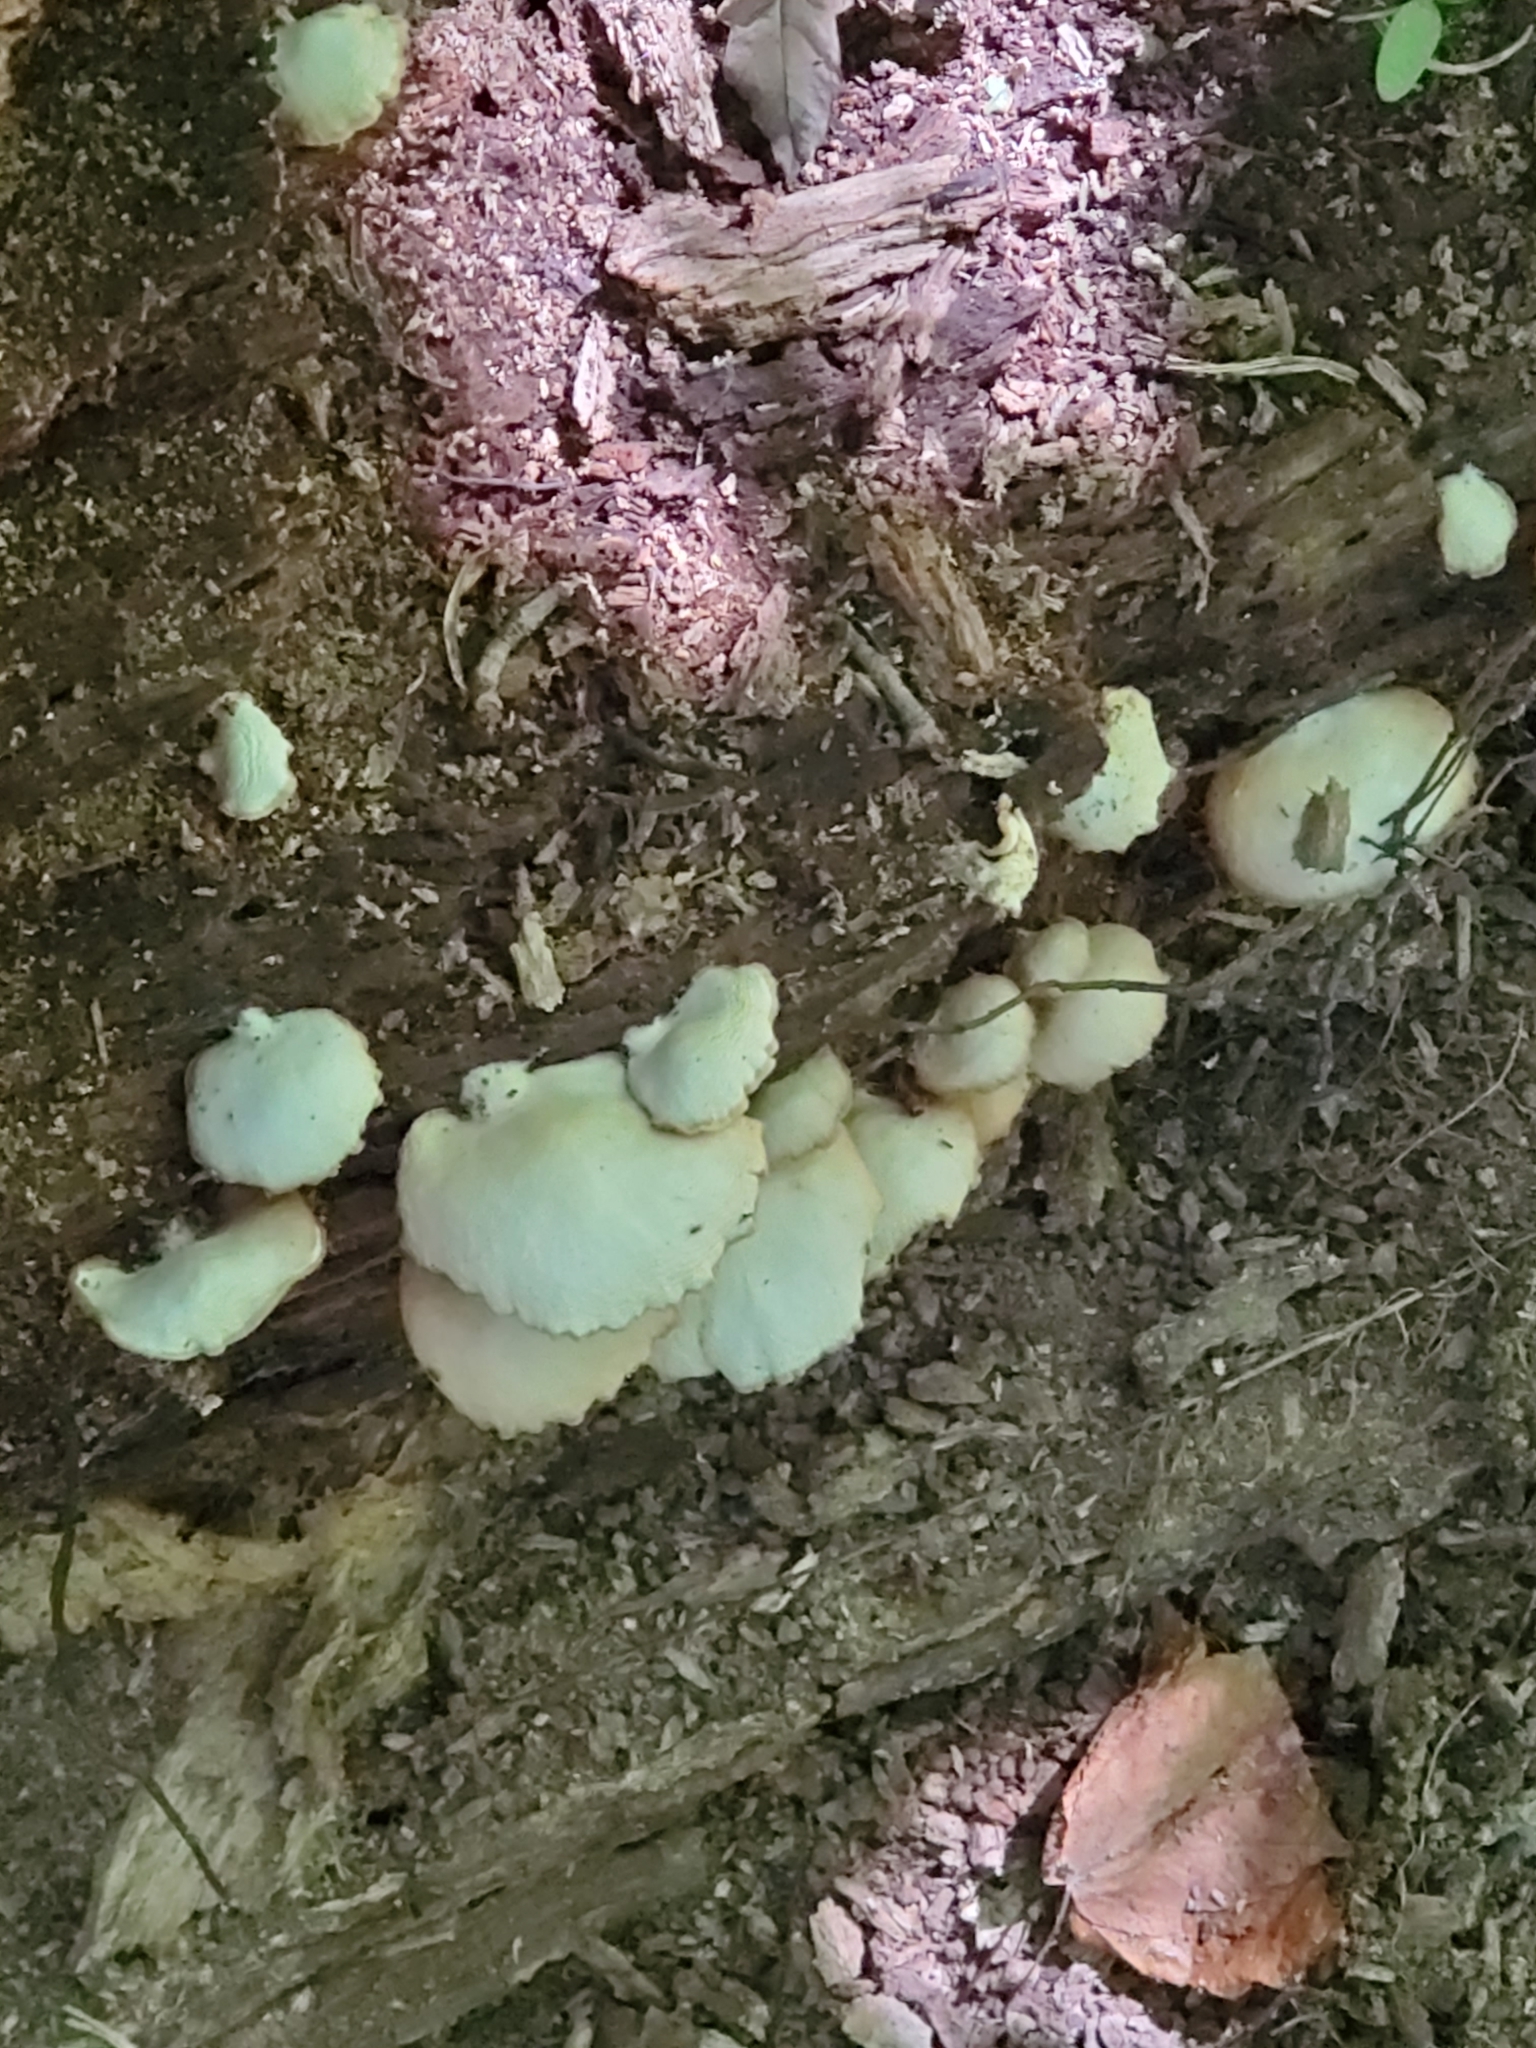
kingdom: Fungi
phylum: Basidiomycota
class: Agaricomycetes
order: Agaricales
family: Crepidotaceae
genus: Crepidotus
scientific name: Crepidotus applanatus
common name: Flat crep
